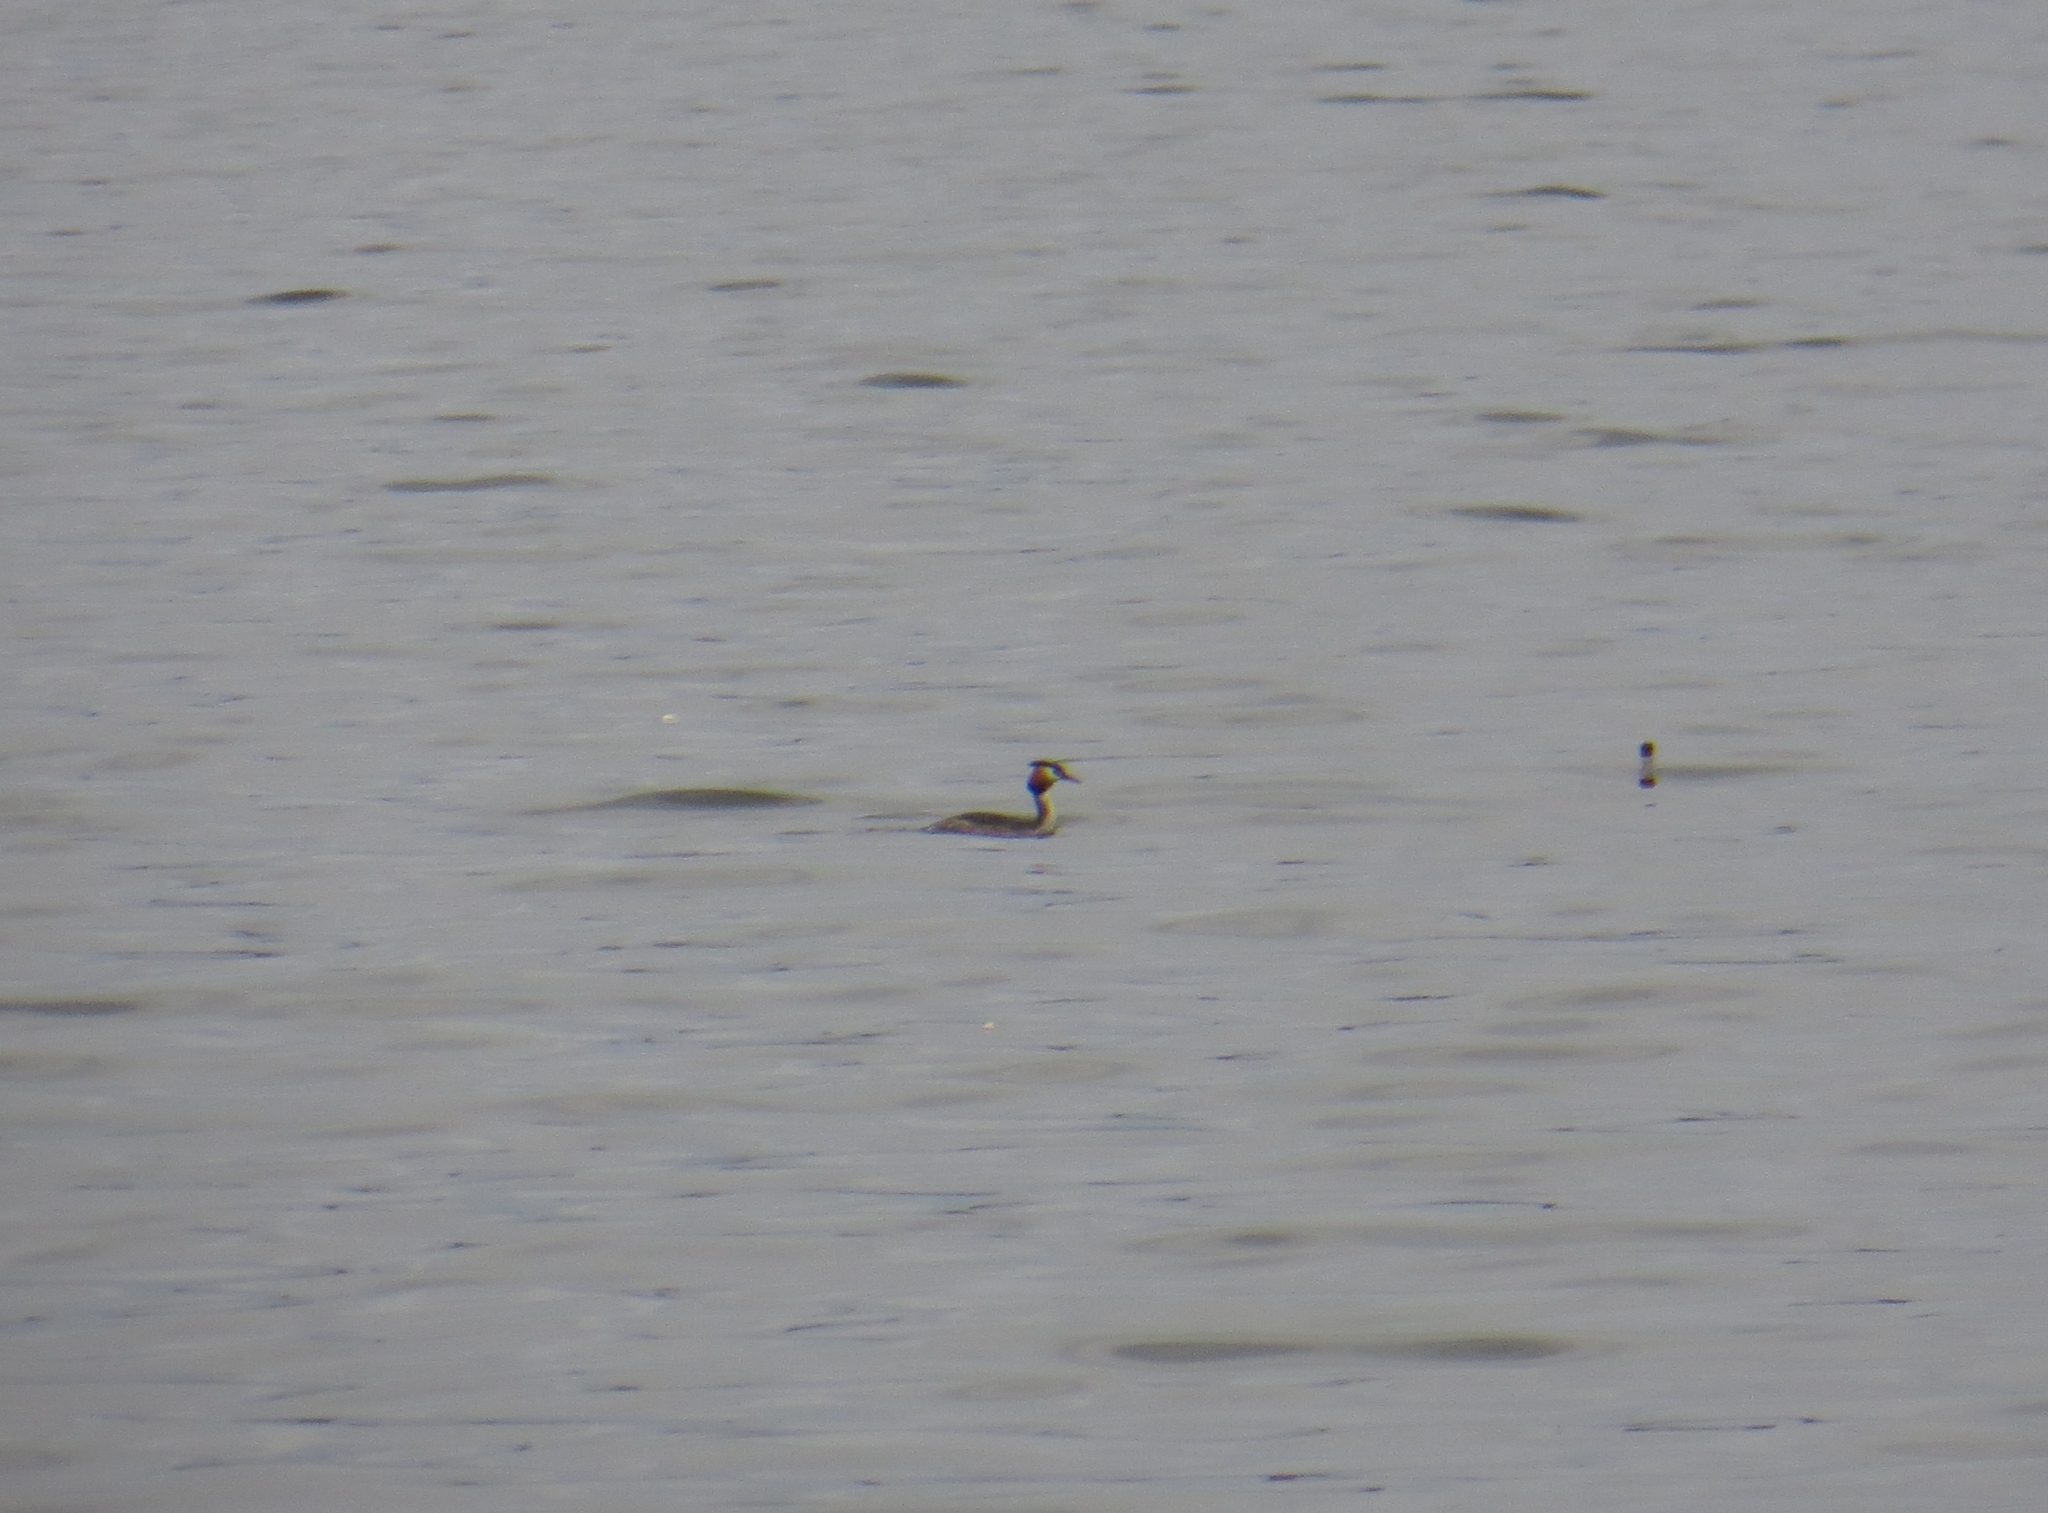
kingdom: Animalia
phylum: Chordata
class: Aves
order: Podicipediformes
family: Podicipedidae
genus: Podiceps
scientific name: Podiceps cristatus
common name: Great crested grebe
